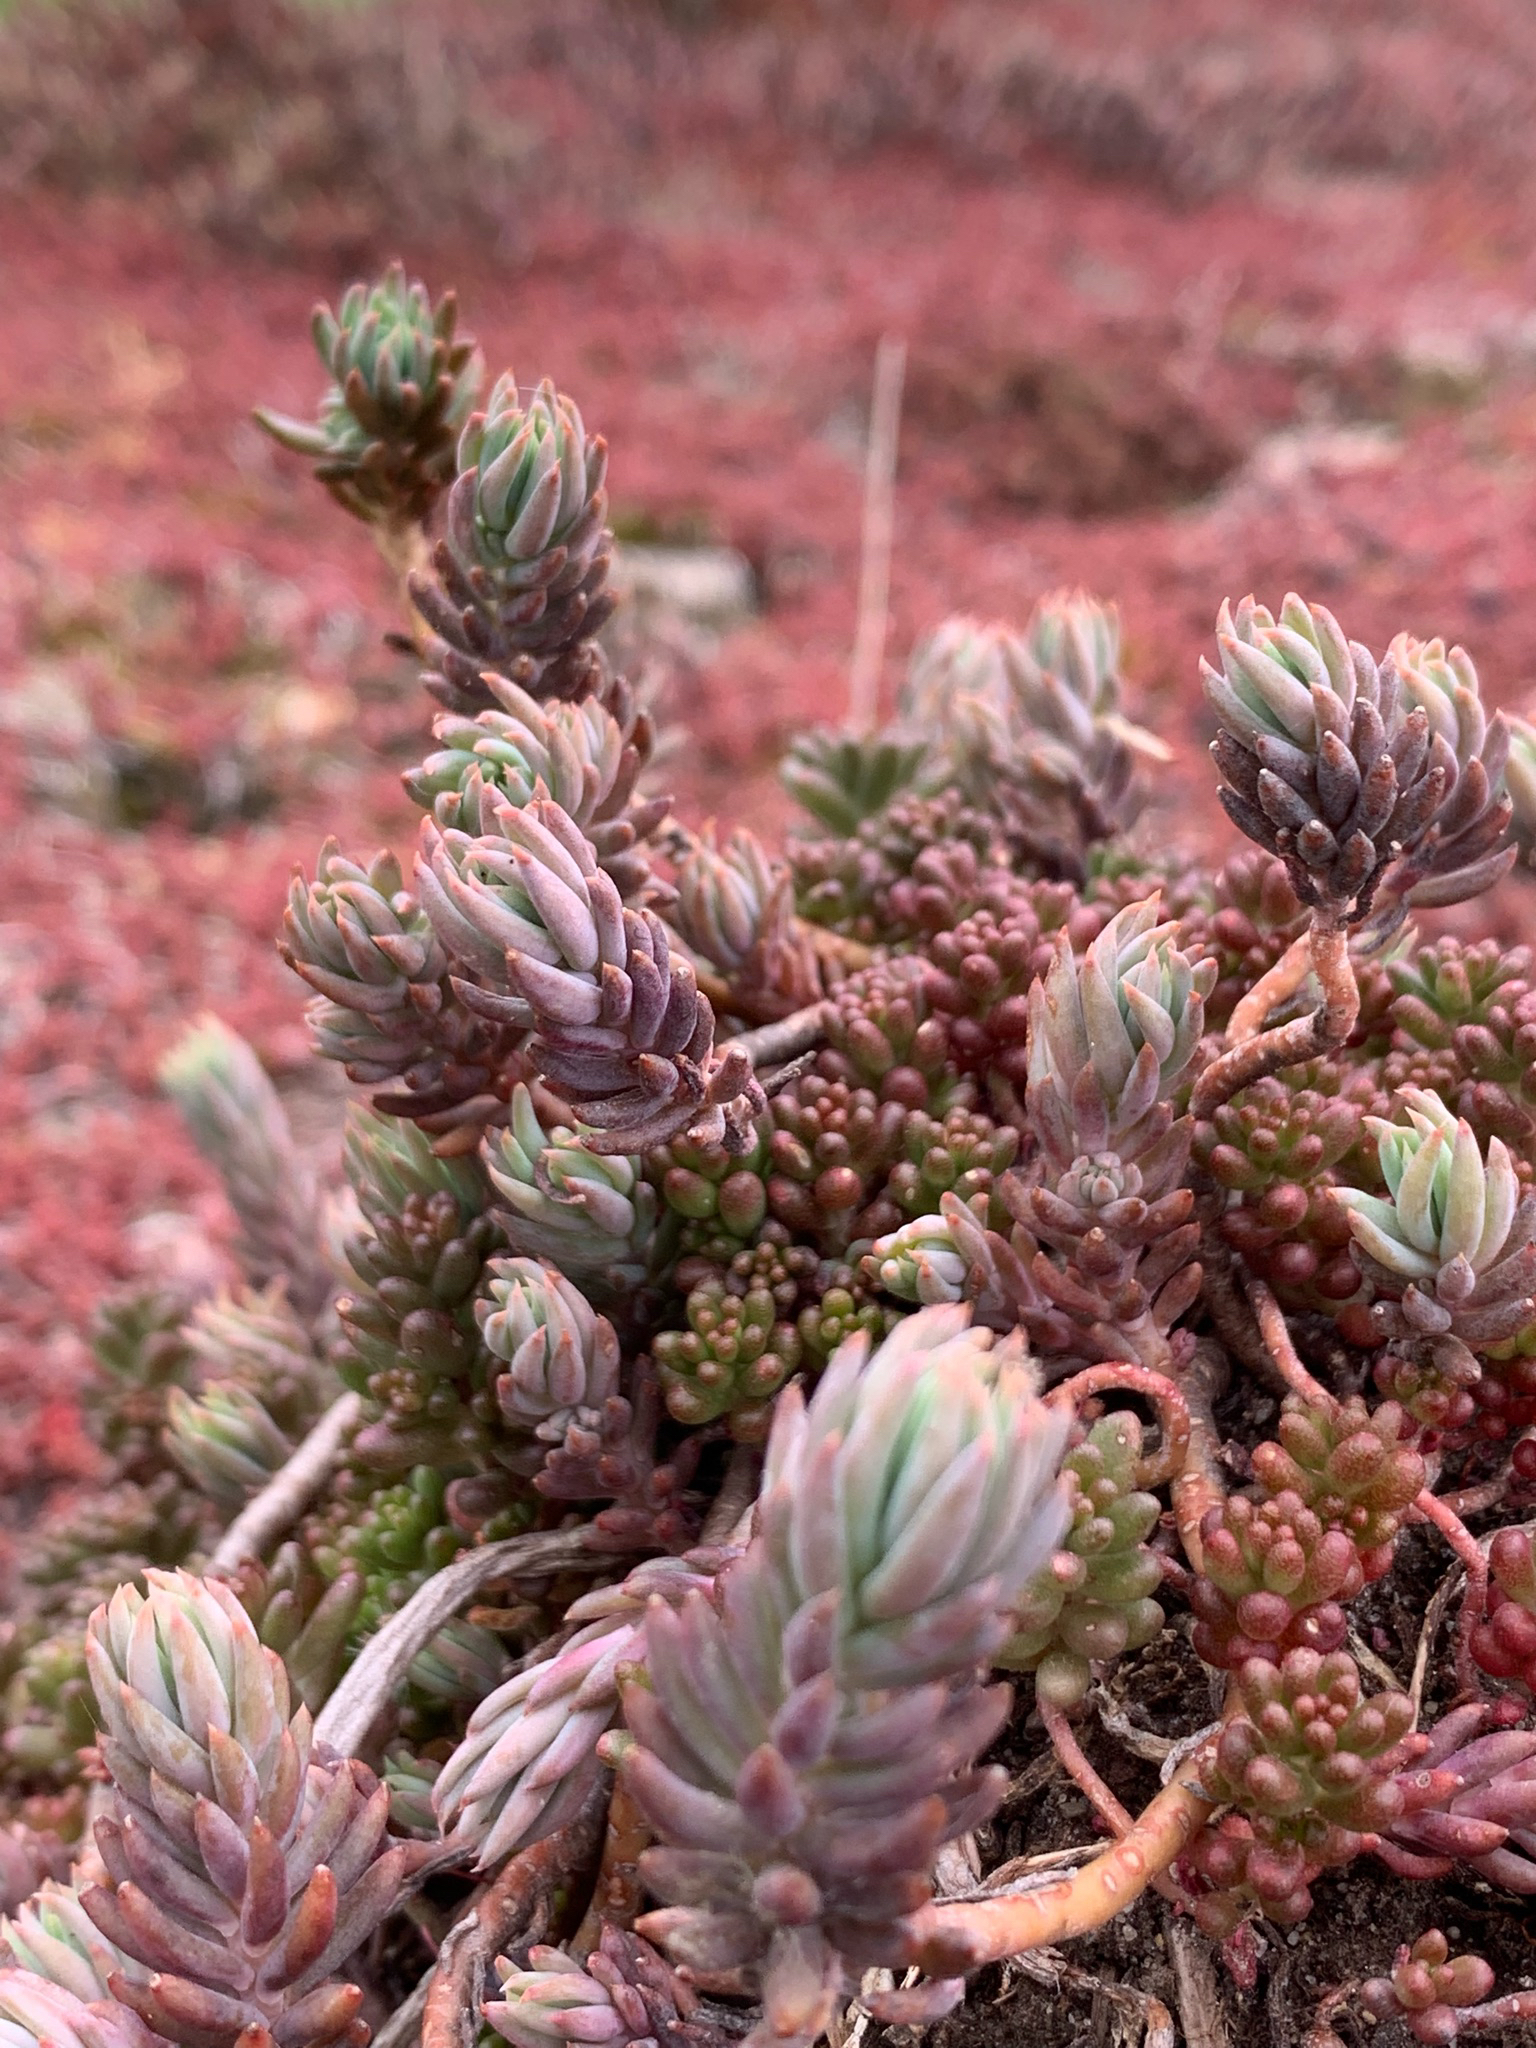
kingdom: Plantae
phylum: Tracheophyta
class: Magnoliopsida
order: Saxifragales
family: Crassulaceae
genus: Petrosedum
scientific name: Petrosedum
